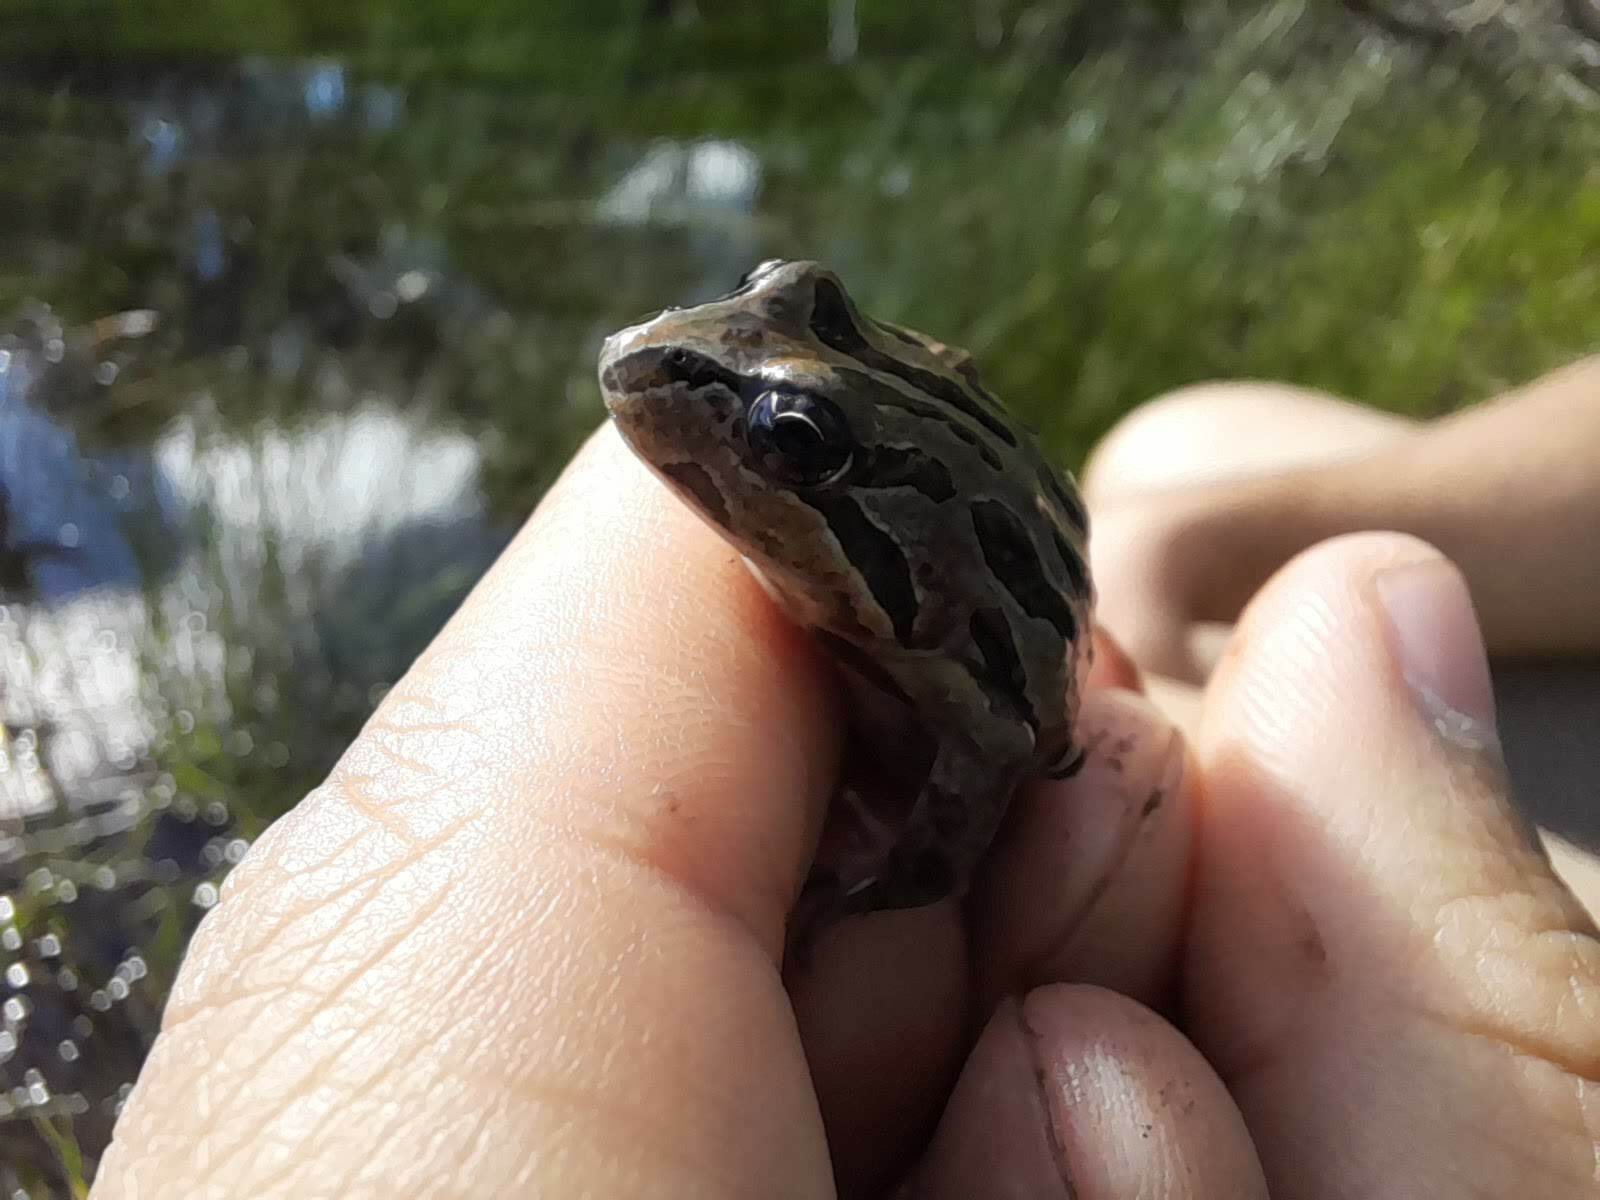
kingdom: Animalia
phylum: Chordata
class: Amphibia
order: Anura
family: Leptodactylidae
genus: Pleurodema
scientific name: Pleurodema thaul
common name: Chile four-eyed frog
